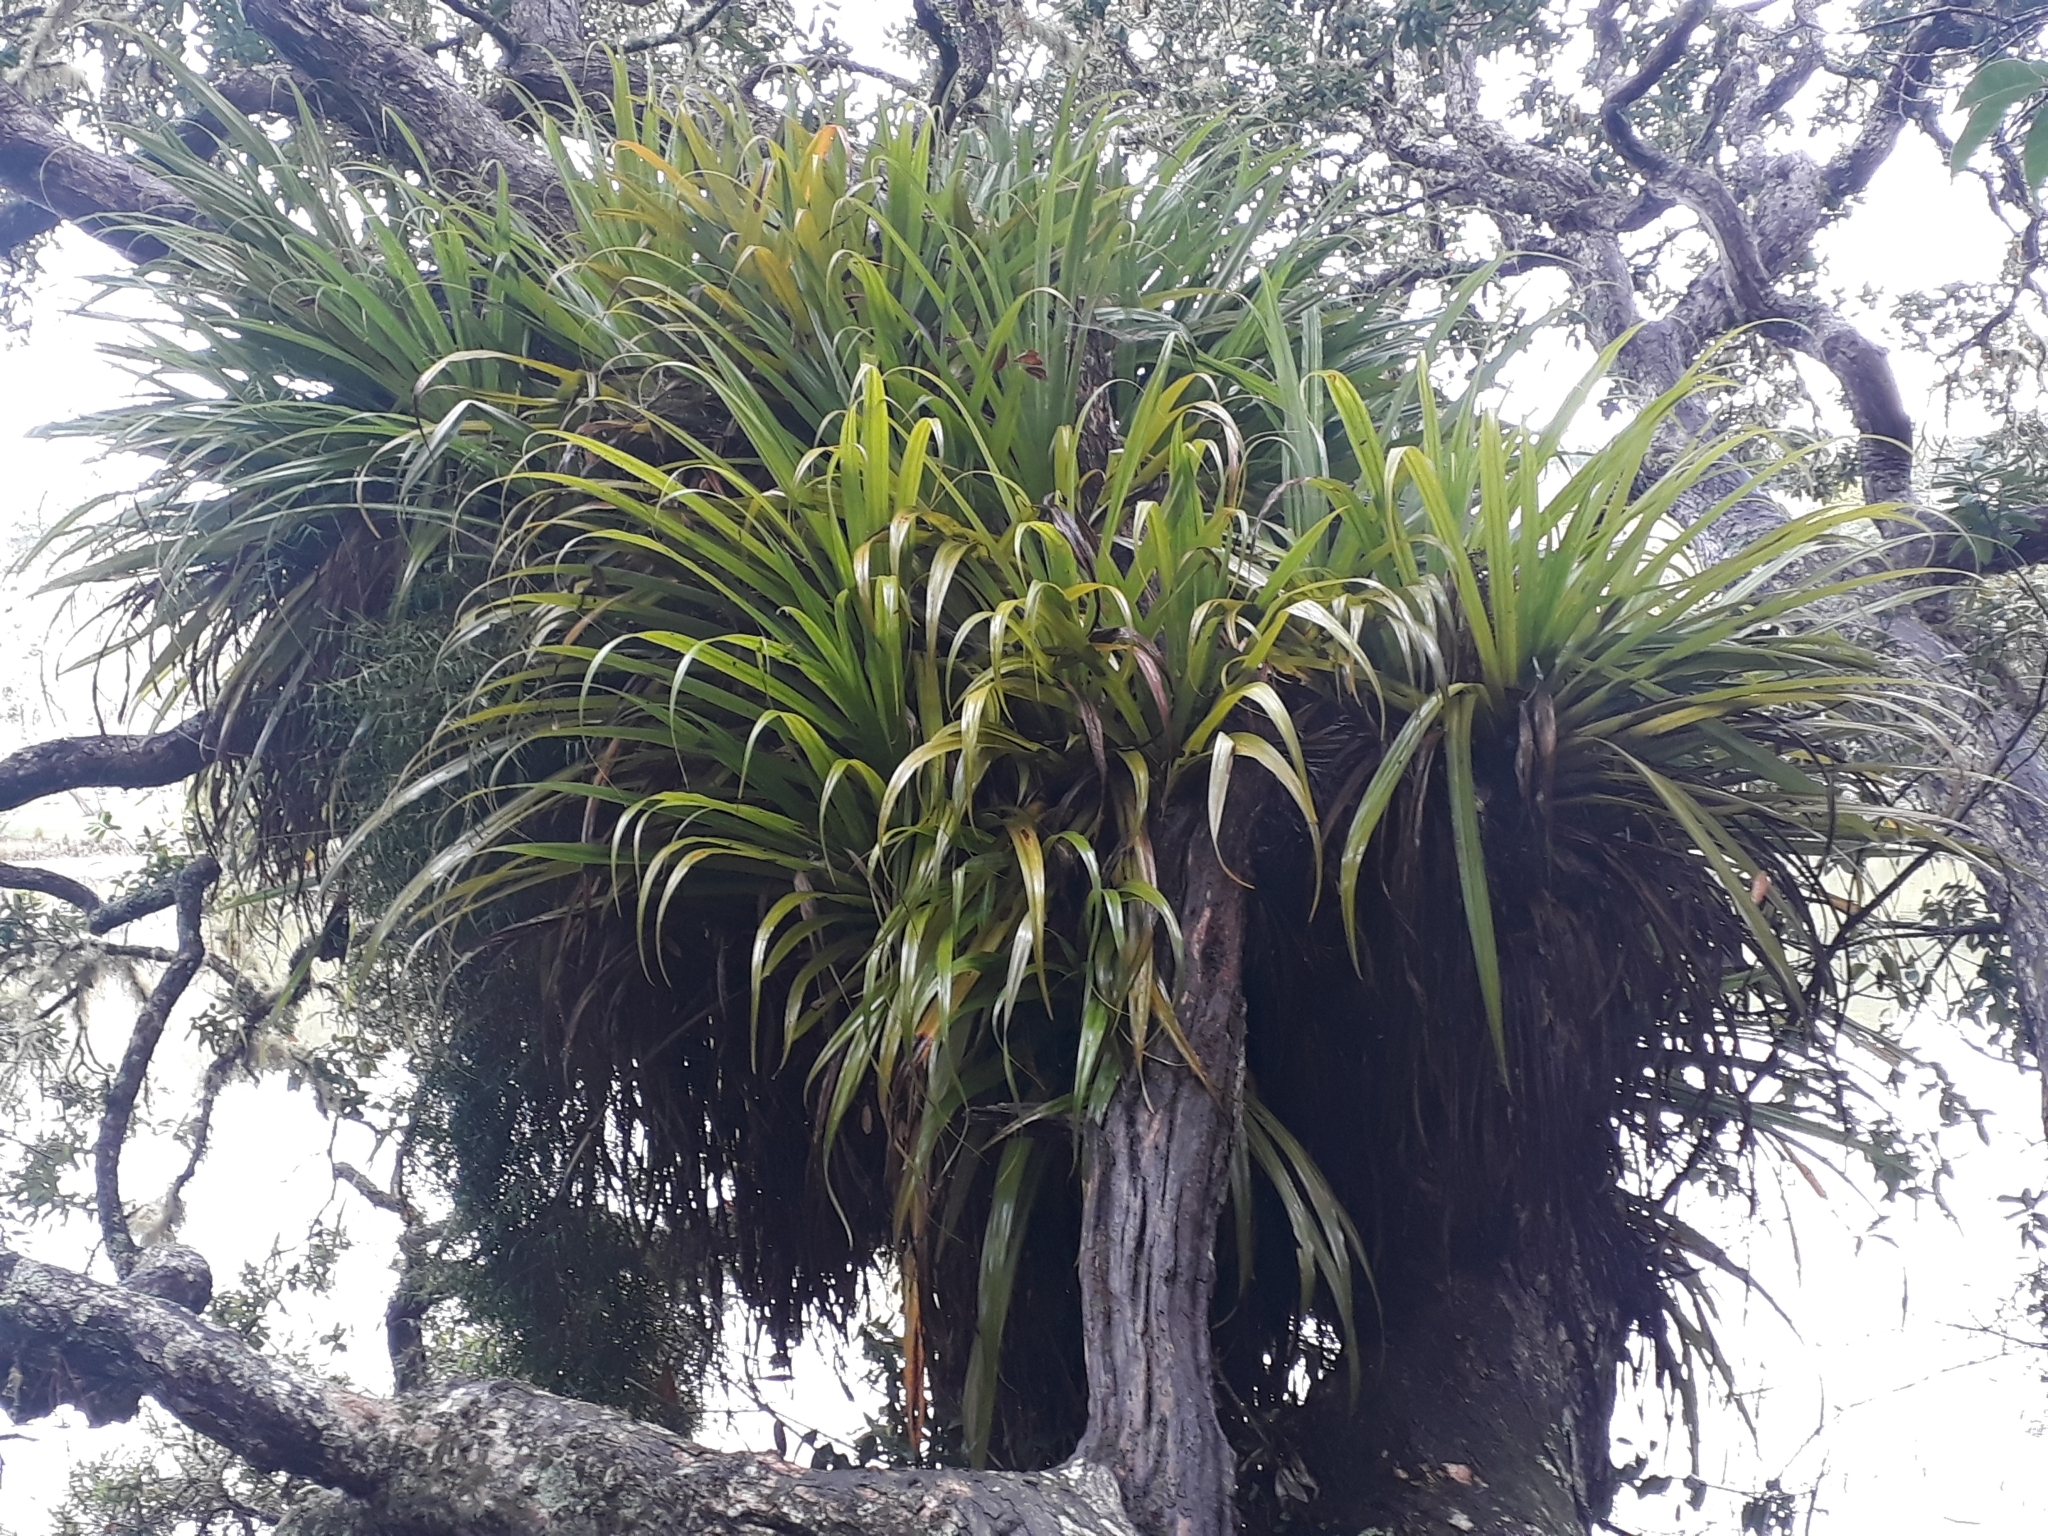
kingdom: Plantae
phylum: Tracheophyta
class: Liliopsida
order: Asparagales
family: Asteliaceae
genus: Astelia
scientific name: Astelia hastata
